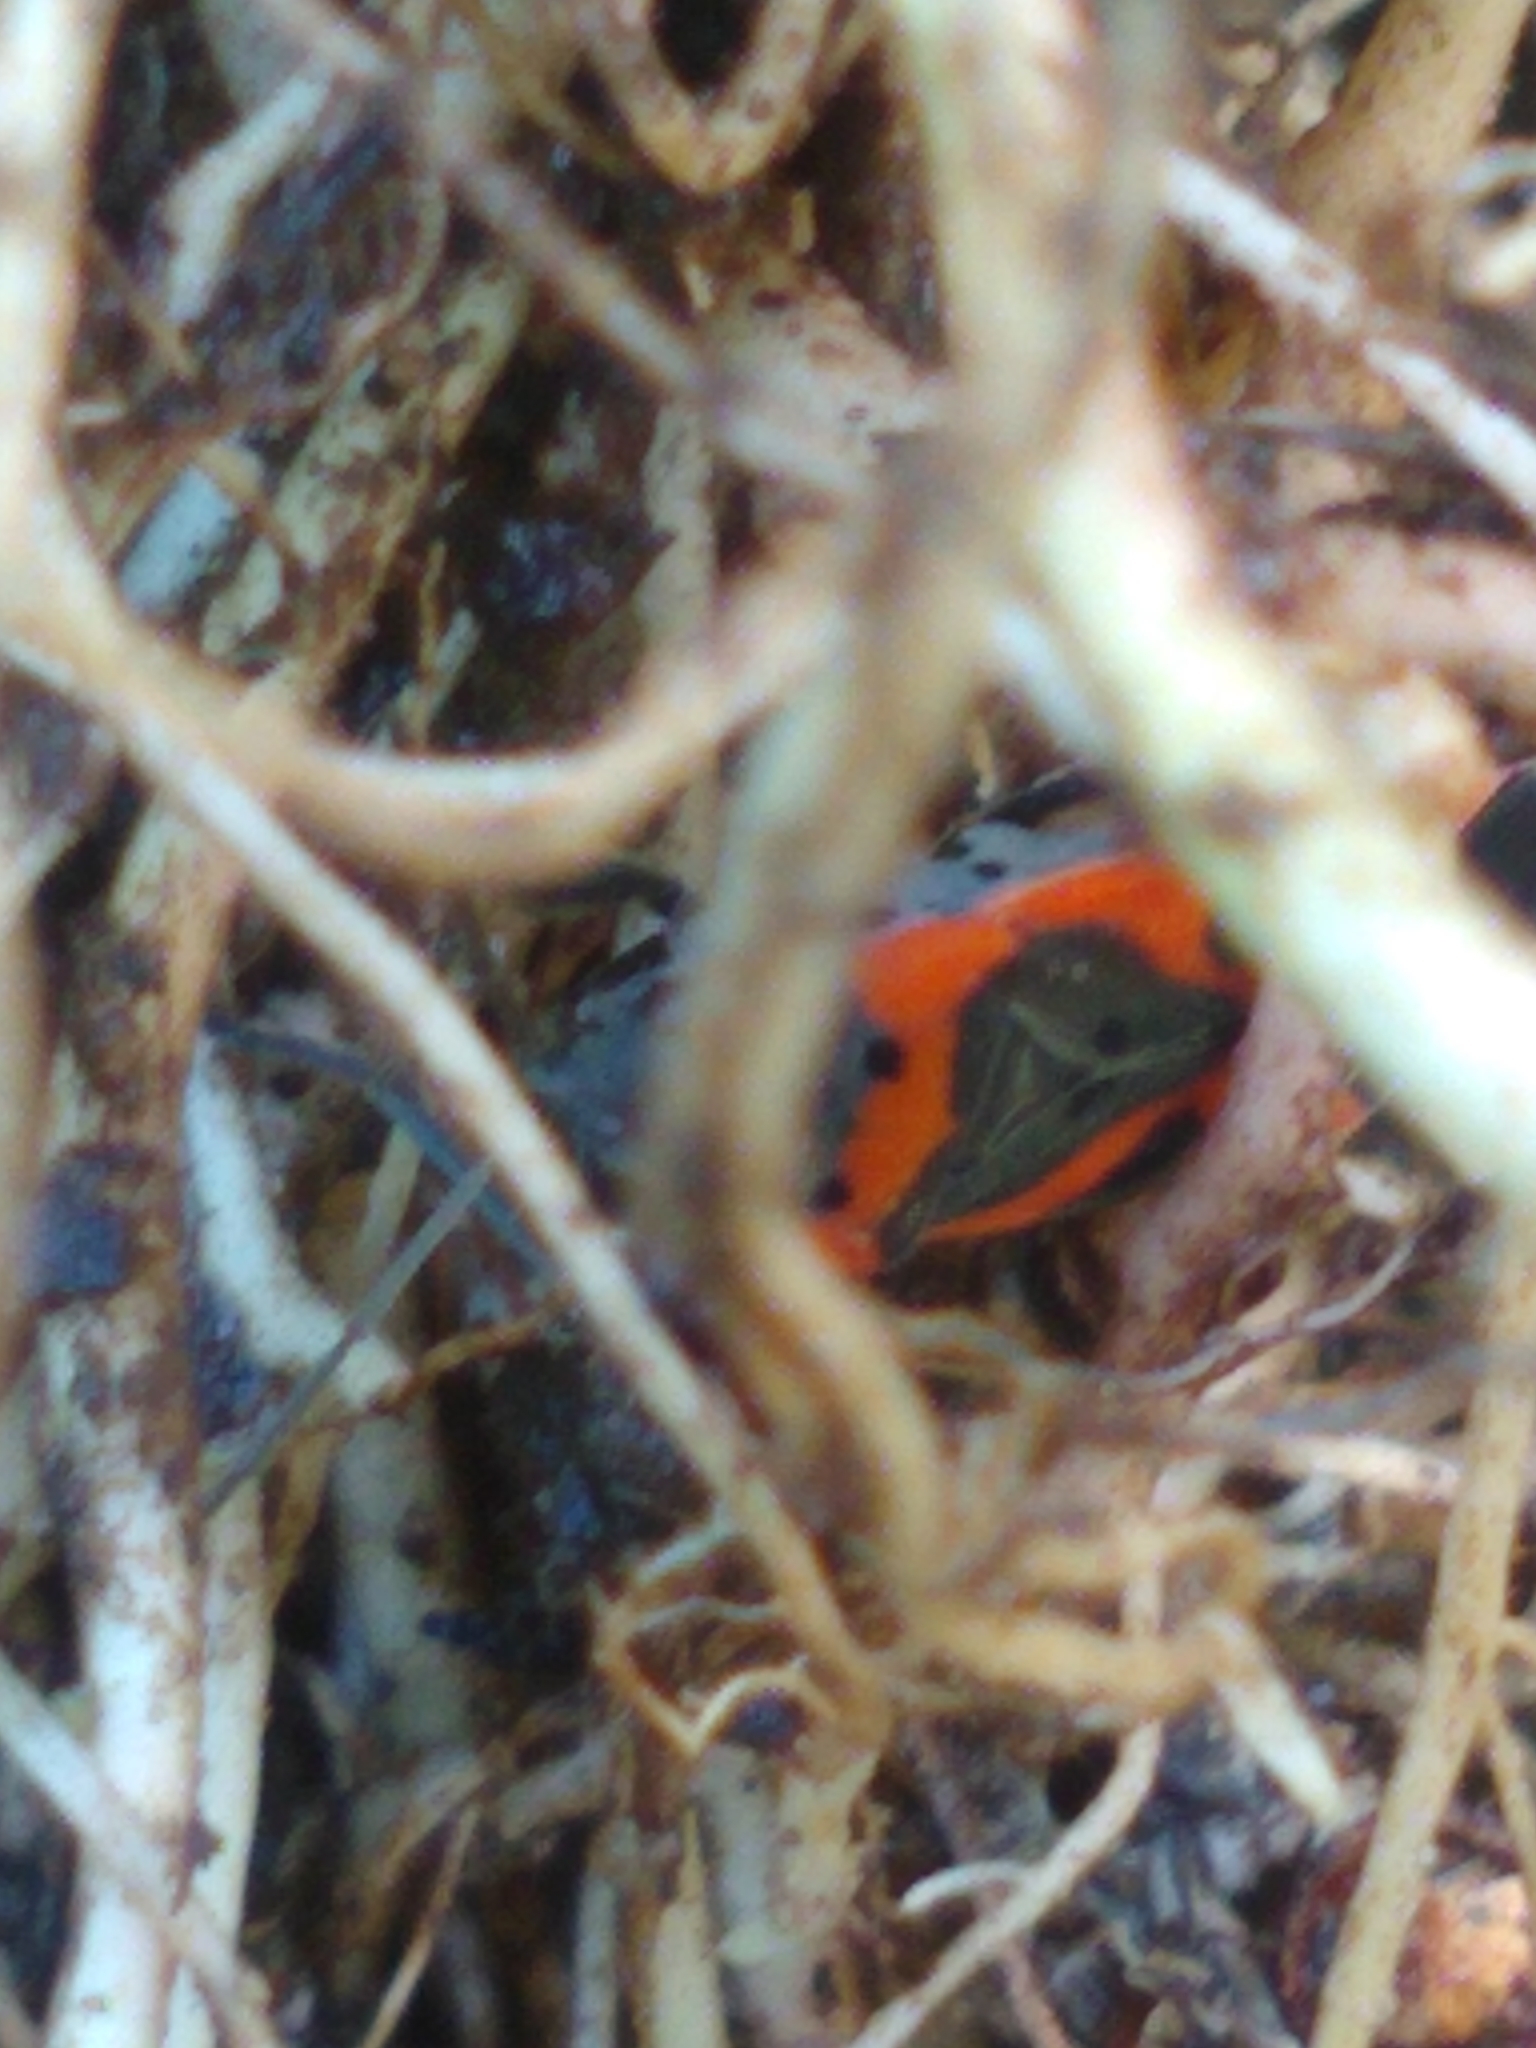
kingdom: Animalia
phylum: Arthropoda
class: Insecta
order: Hemiptera
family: Lygaeidae
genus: Lygaeus
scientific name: Lygaeus kalmii
